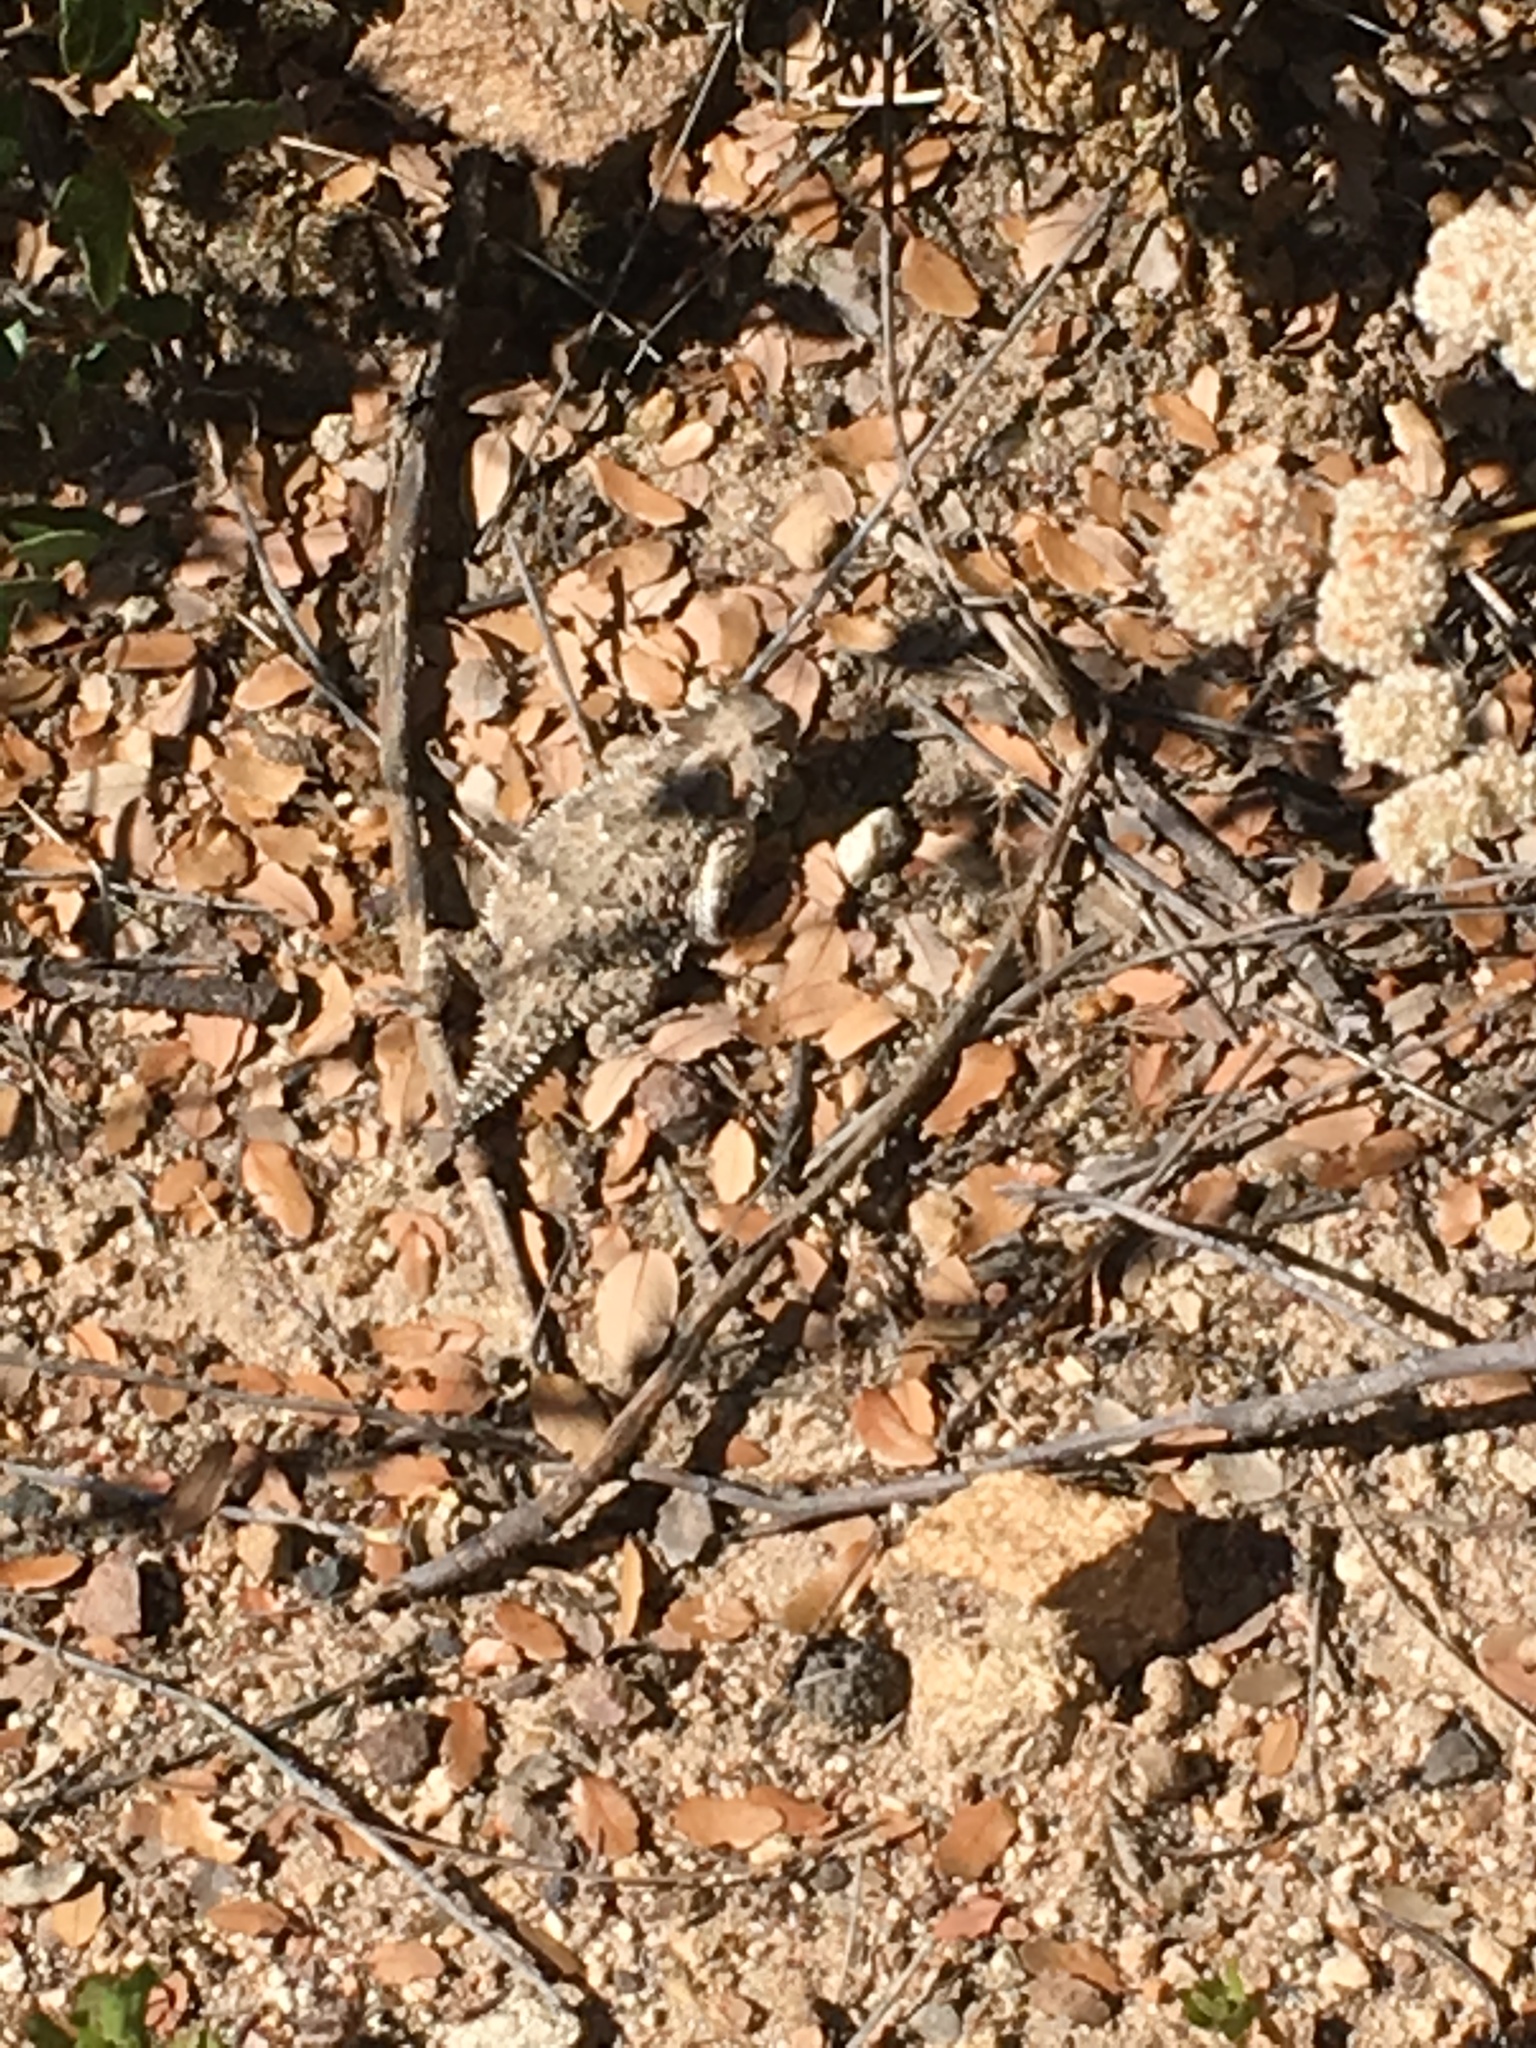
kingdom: Animalia
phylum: Chordata
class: Squamata
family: Phrynosomatidae
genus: Phrynosoma
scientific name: Phrynosoma blainvillii
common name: San diego horned lizard
